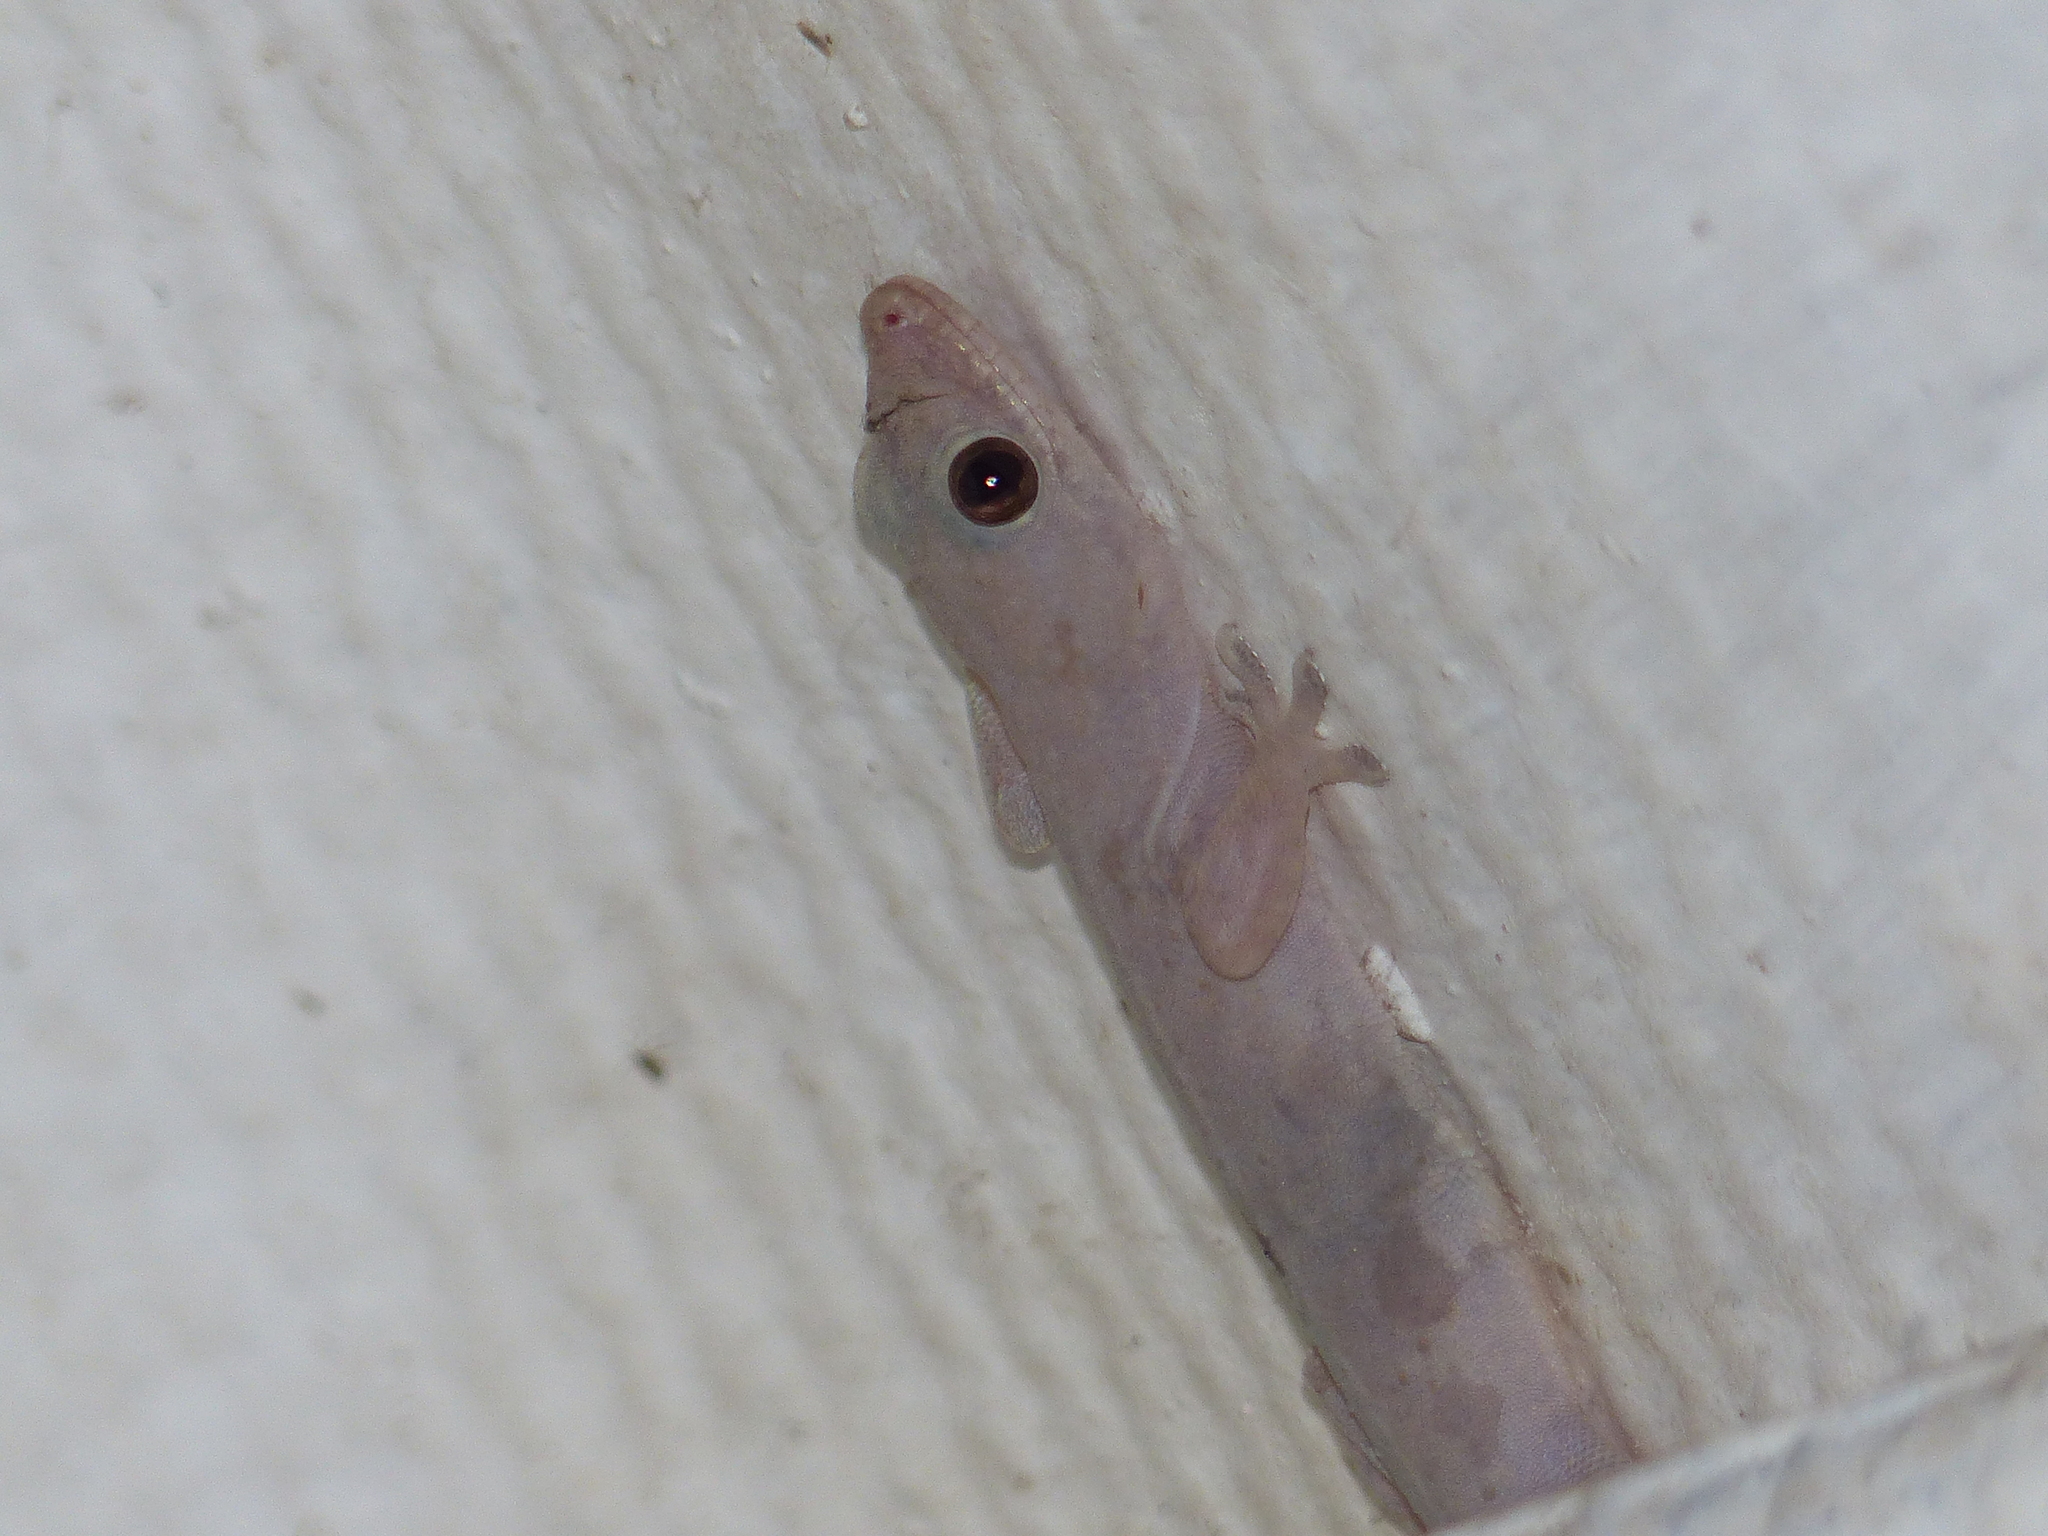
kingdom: Animalia
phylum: Chordata
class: Squamata
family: Gekkonidae
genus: Hemidactylus
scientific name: Hemidactylus frenatus
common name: Common house gecko
